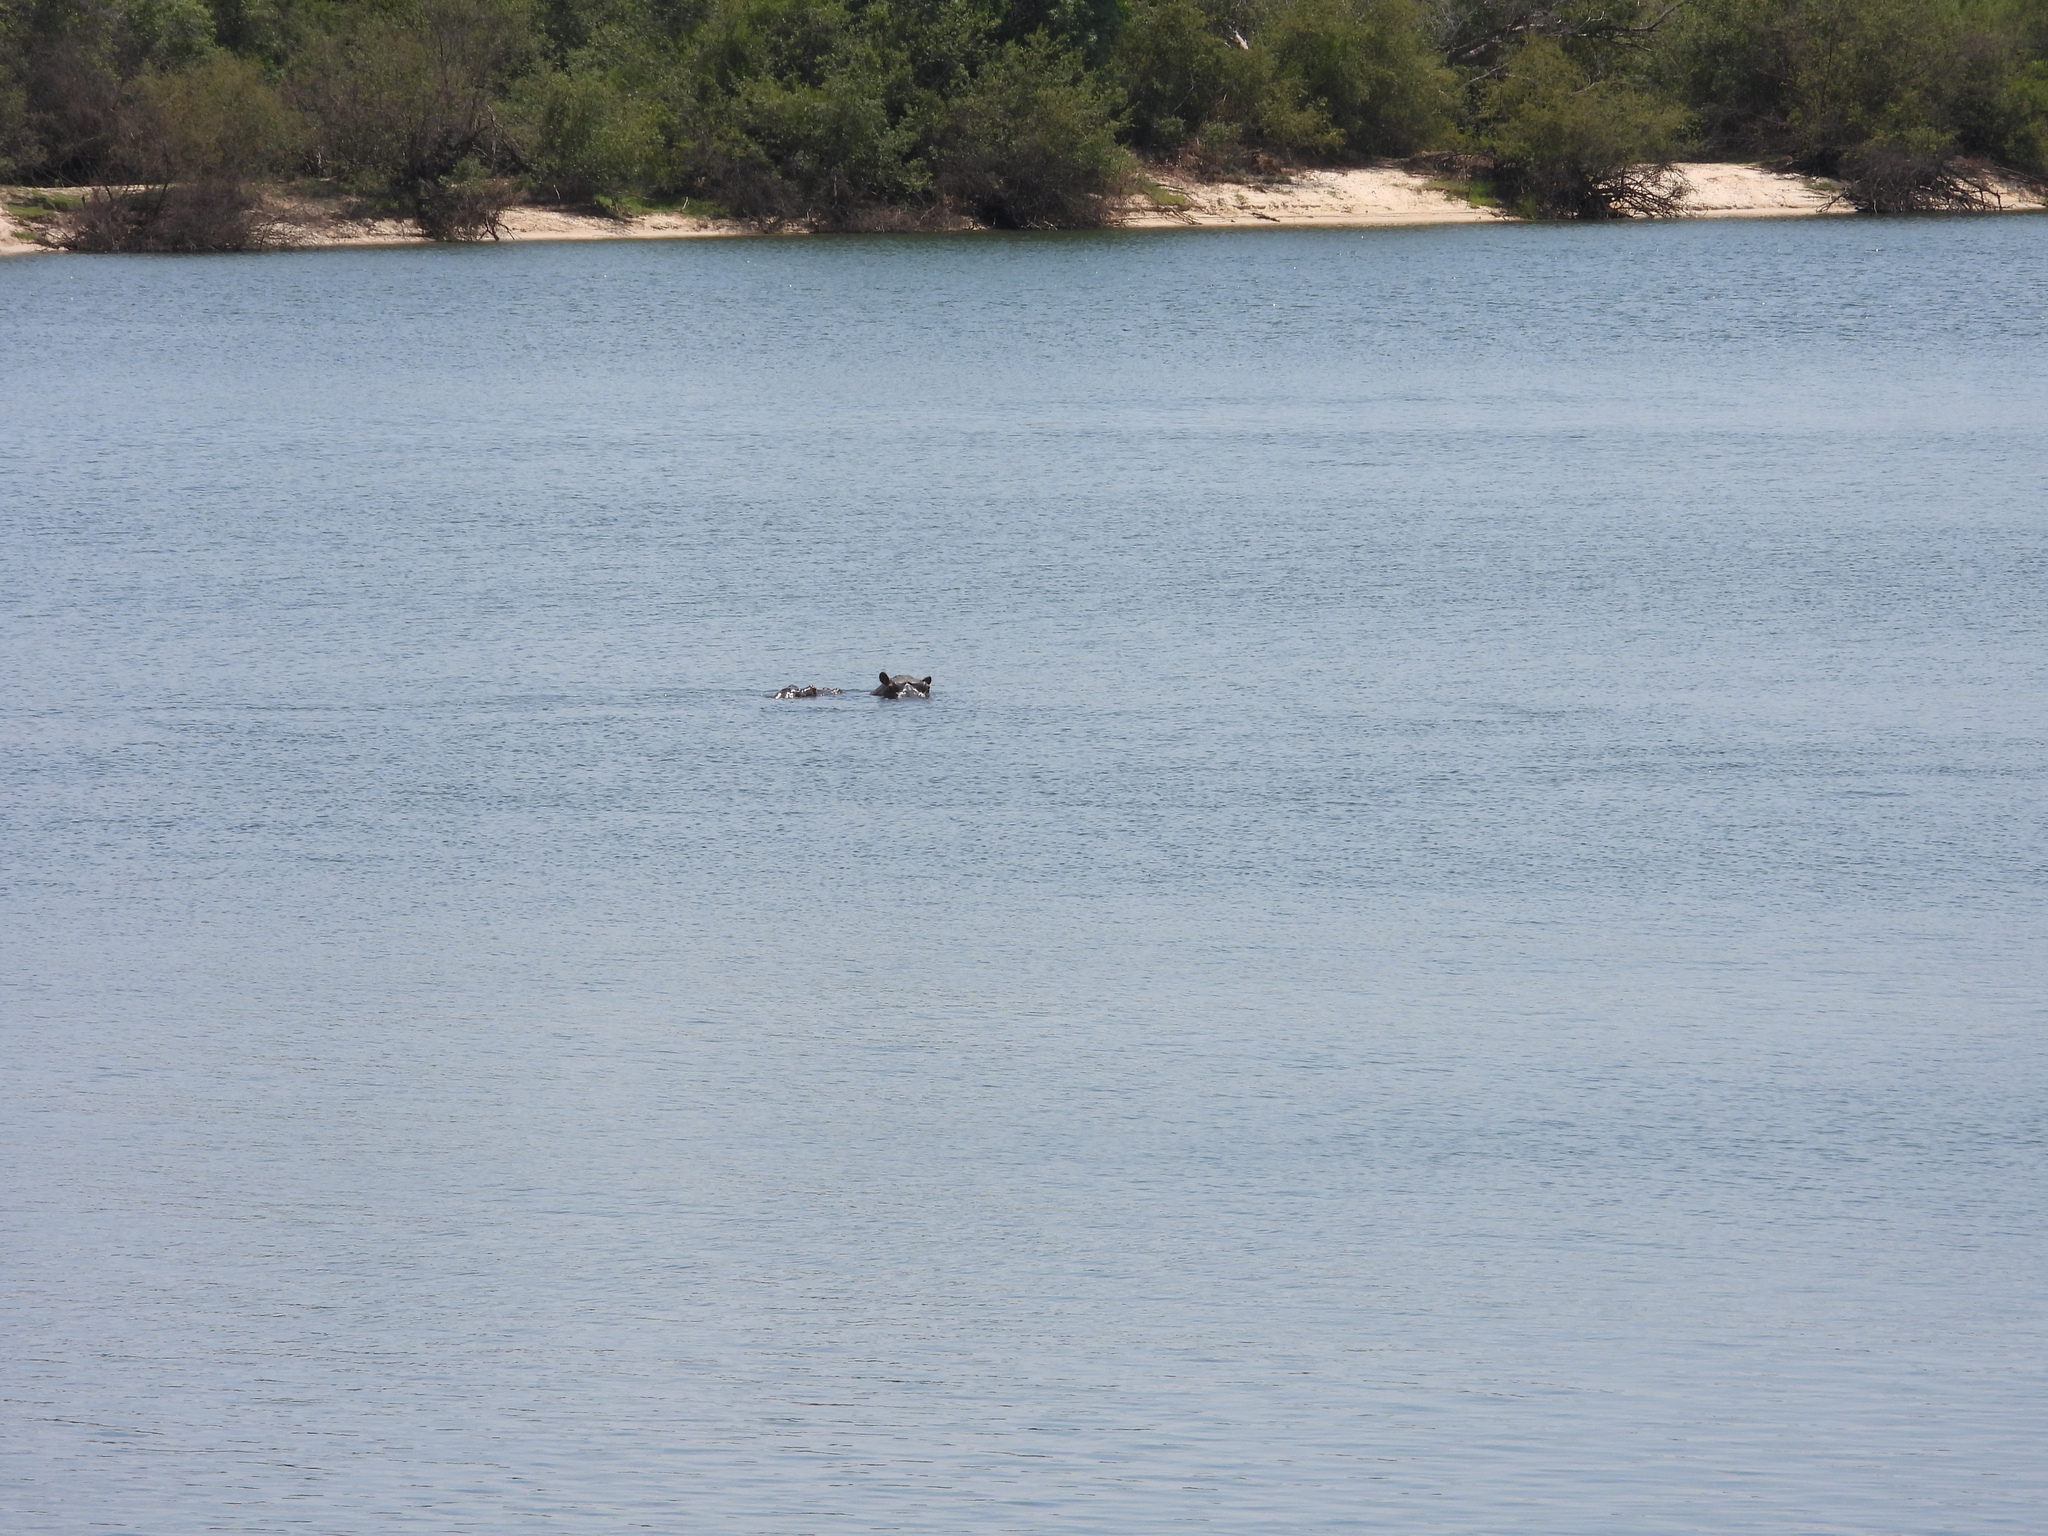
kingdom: Animalia
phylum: Chordata
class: Mammalia
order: Artiodactyla
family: Hippopotamidae
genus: Hippopotamus
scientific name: Hippopotamus amphibius
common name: Common hippopotamus
